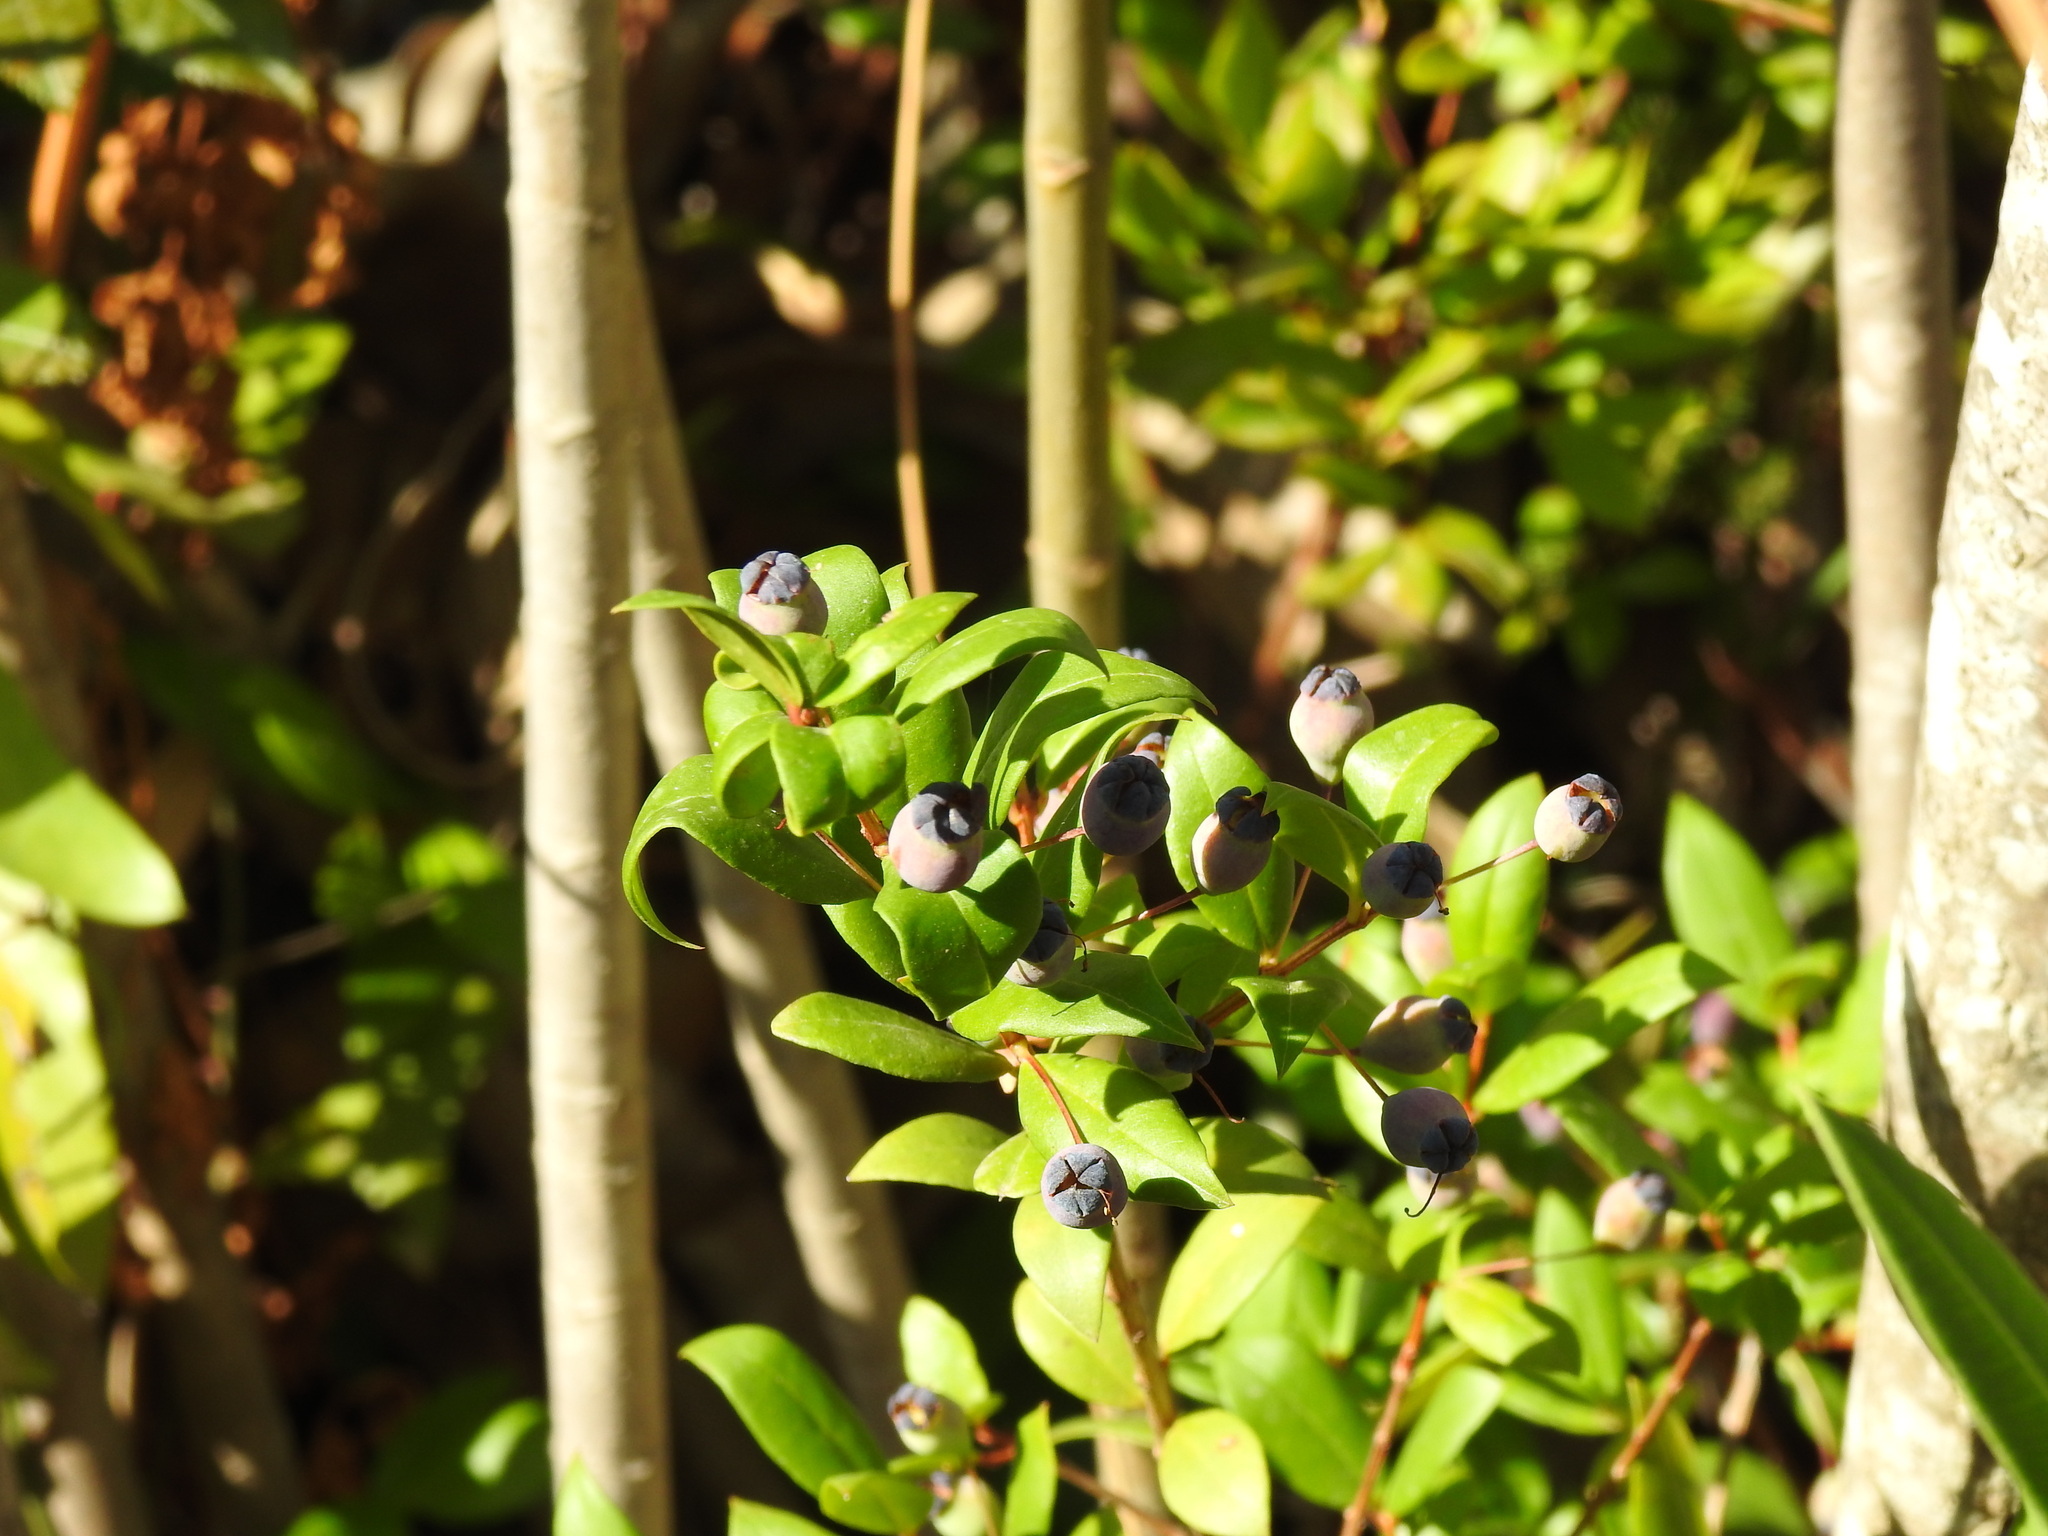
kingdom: Plantae
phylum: Tracheophyta
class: Magnoliopsida
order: Myrtales
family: Myrtaceae
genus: Myrtus
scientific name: Myrtus communis
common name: Myrtle
